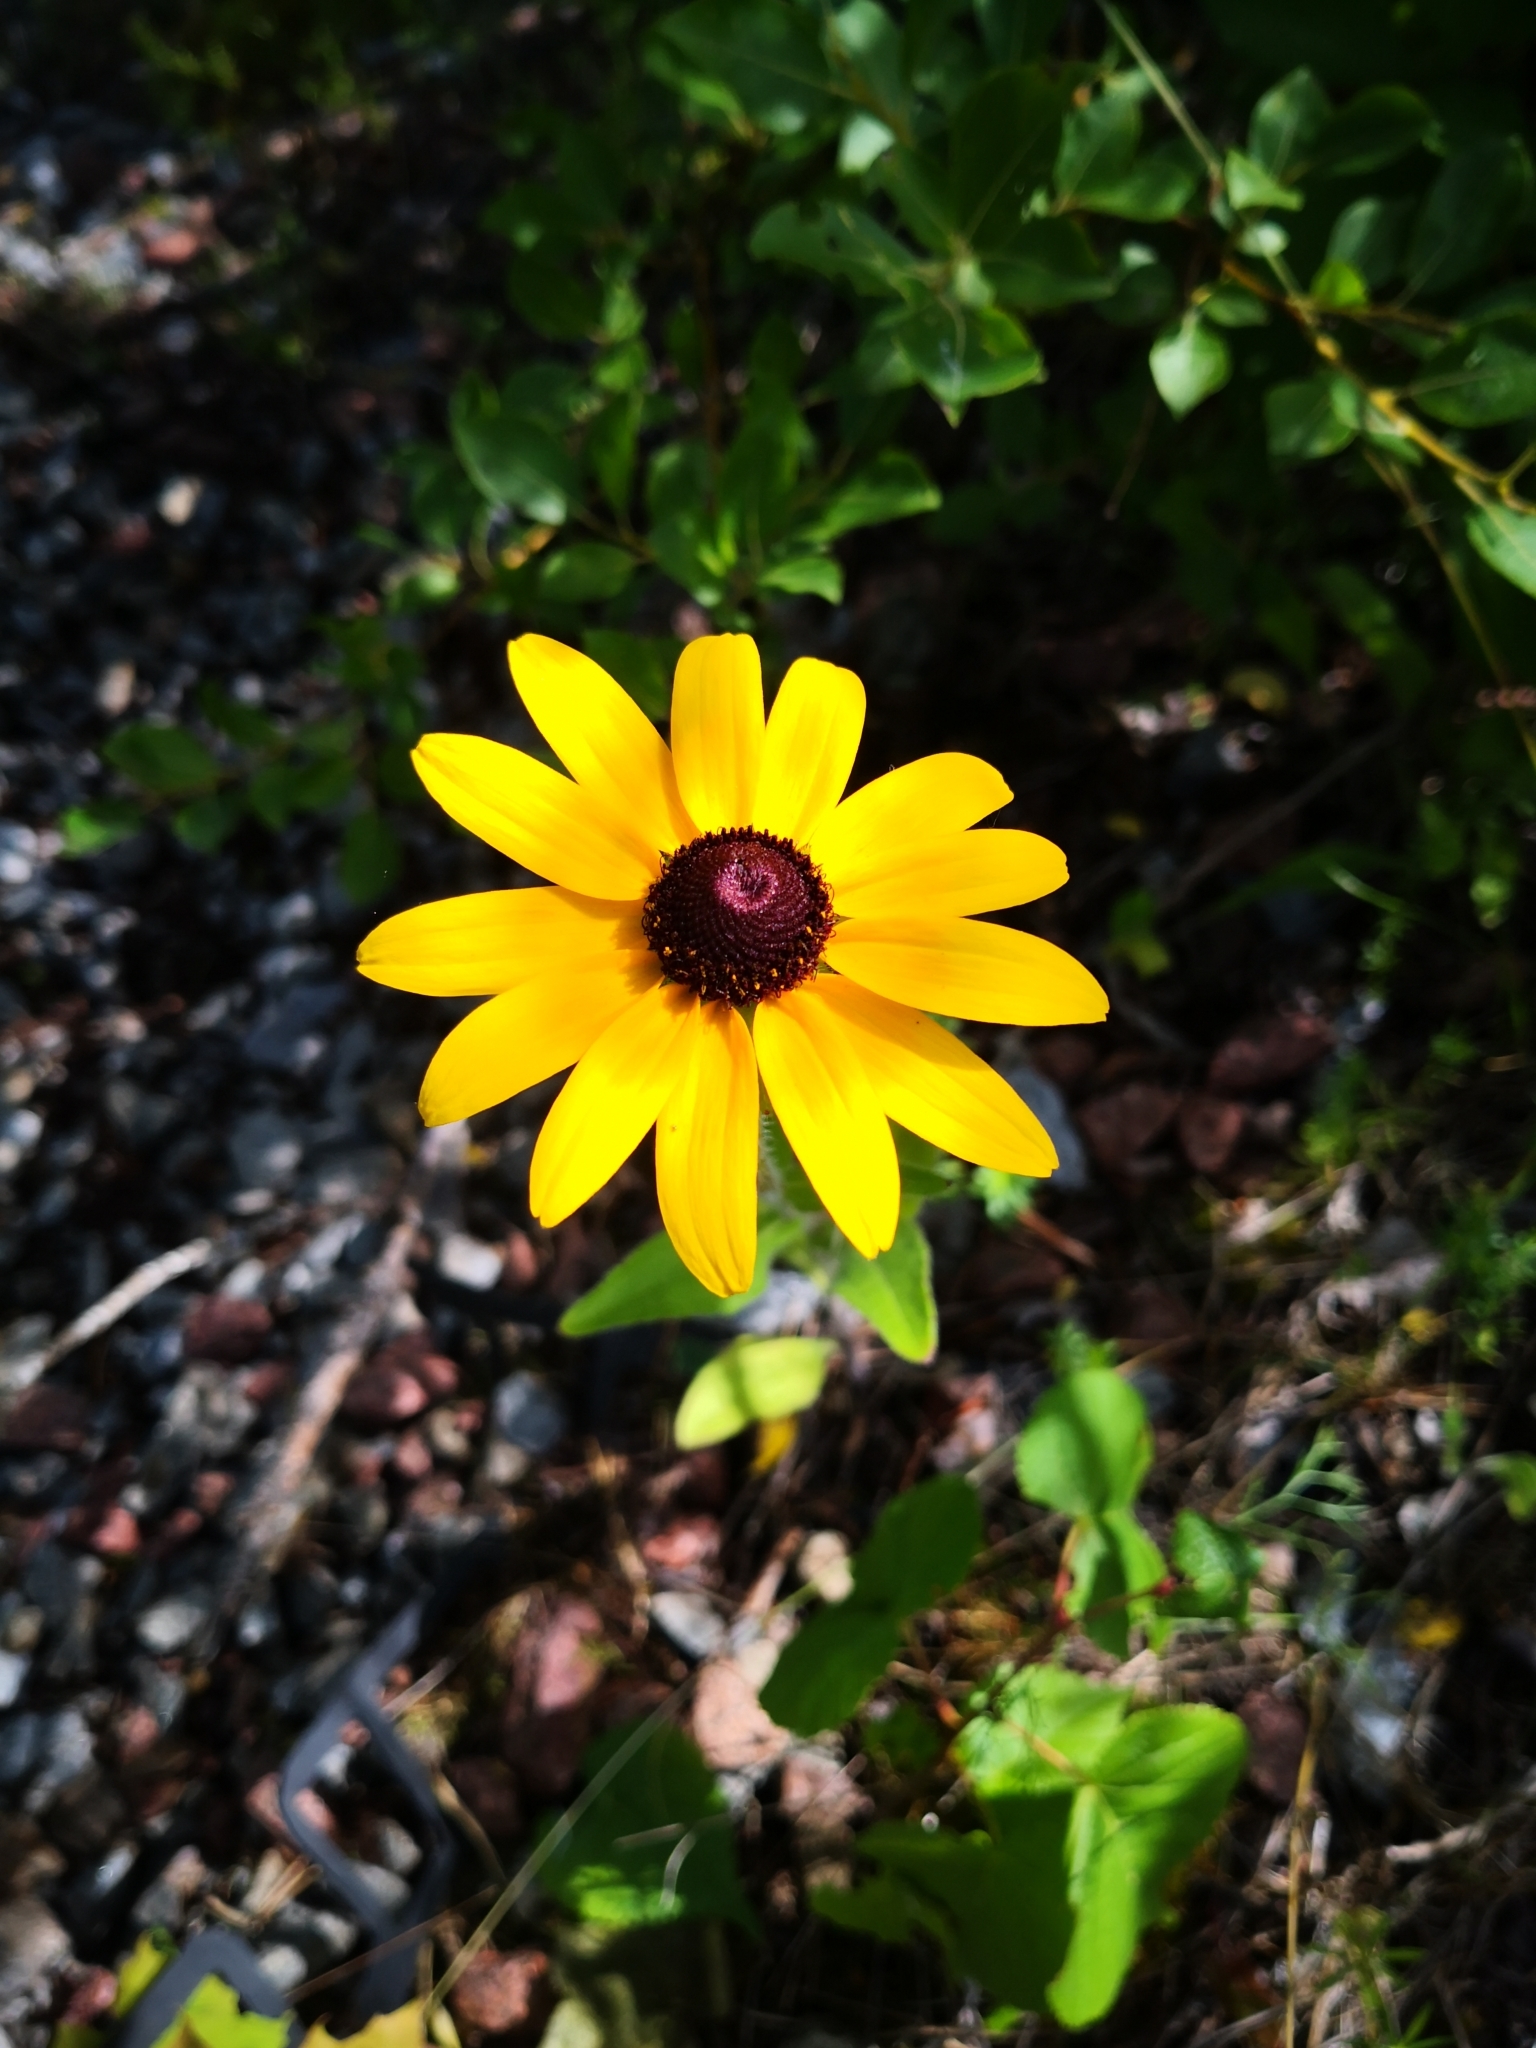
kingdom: Plantae
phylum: Tracheophyta
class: Magnoliopsida
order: Asterales
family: Asteraceae
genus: Rudbeckia
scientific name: Rudbeckia hirta
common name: Black-eyed-susan
